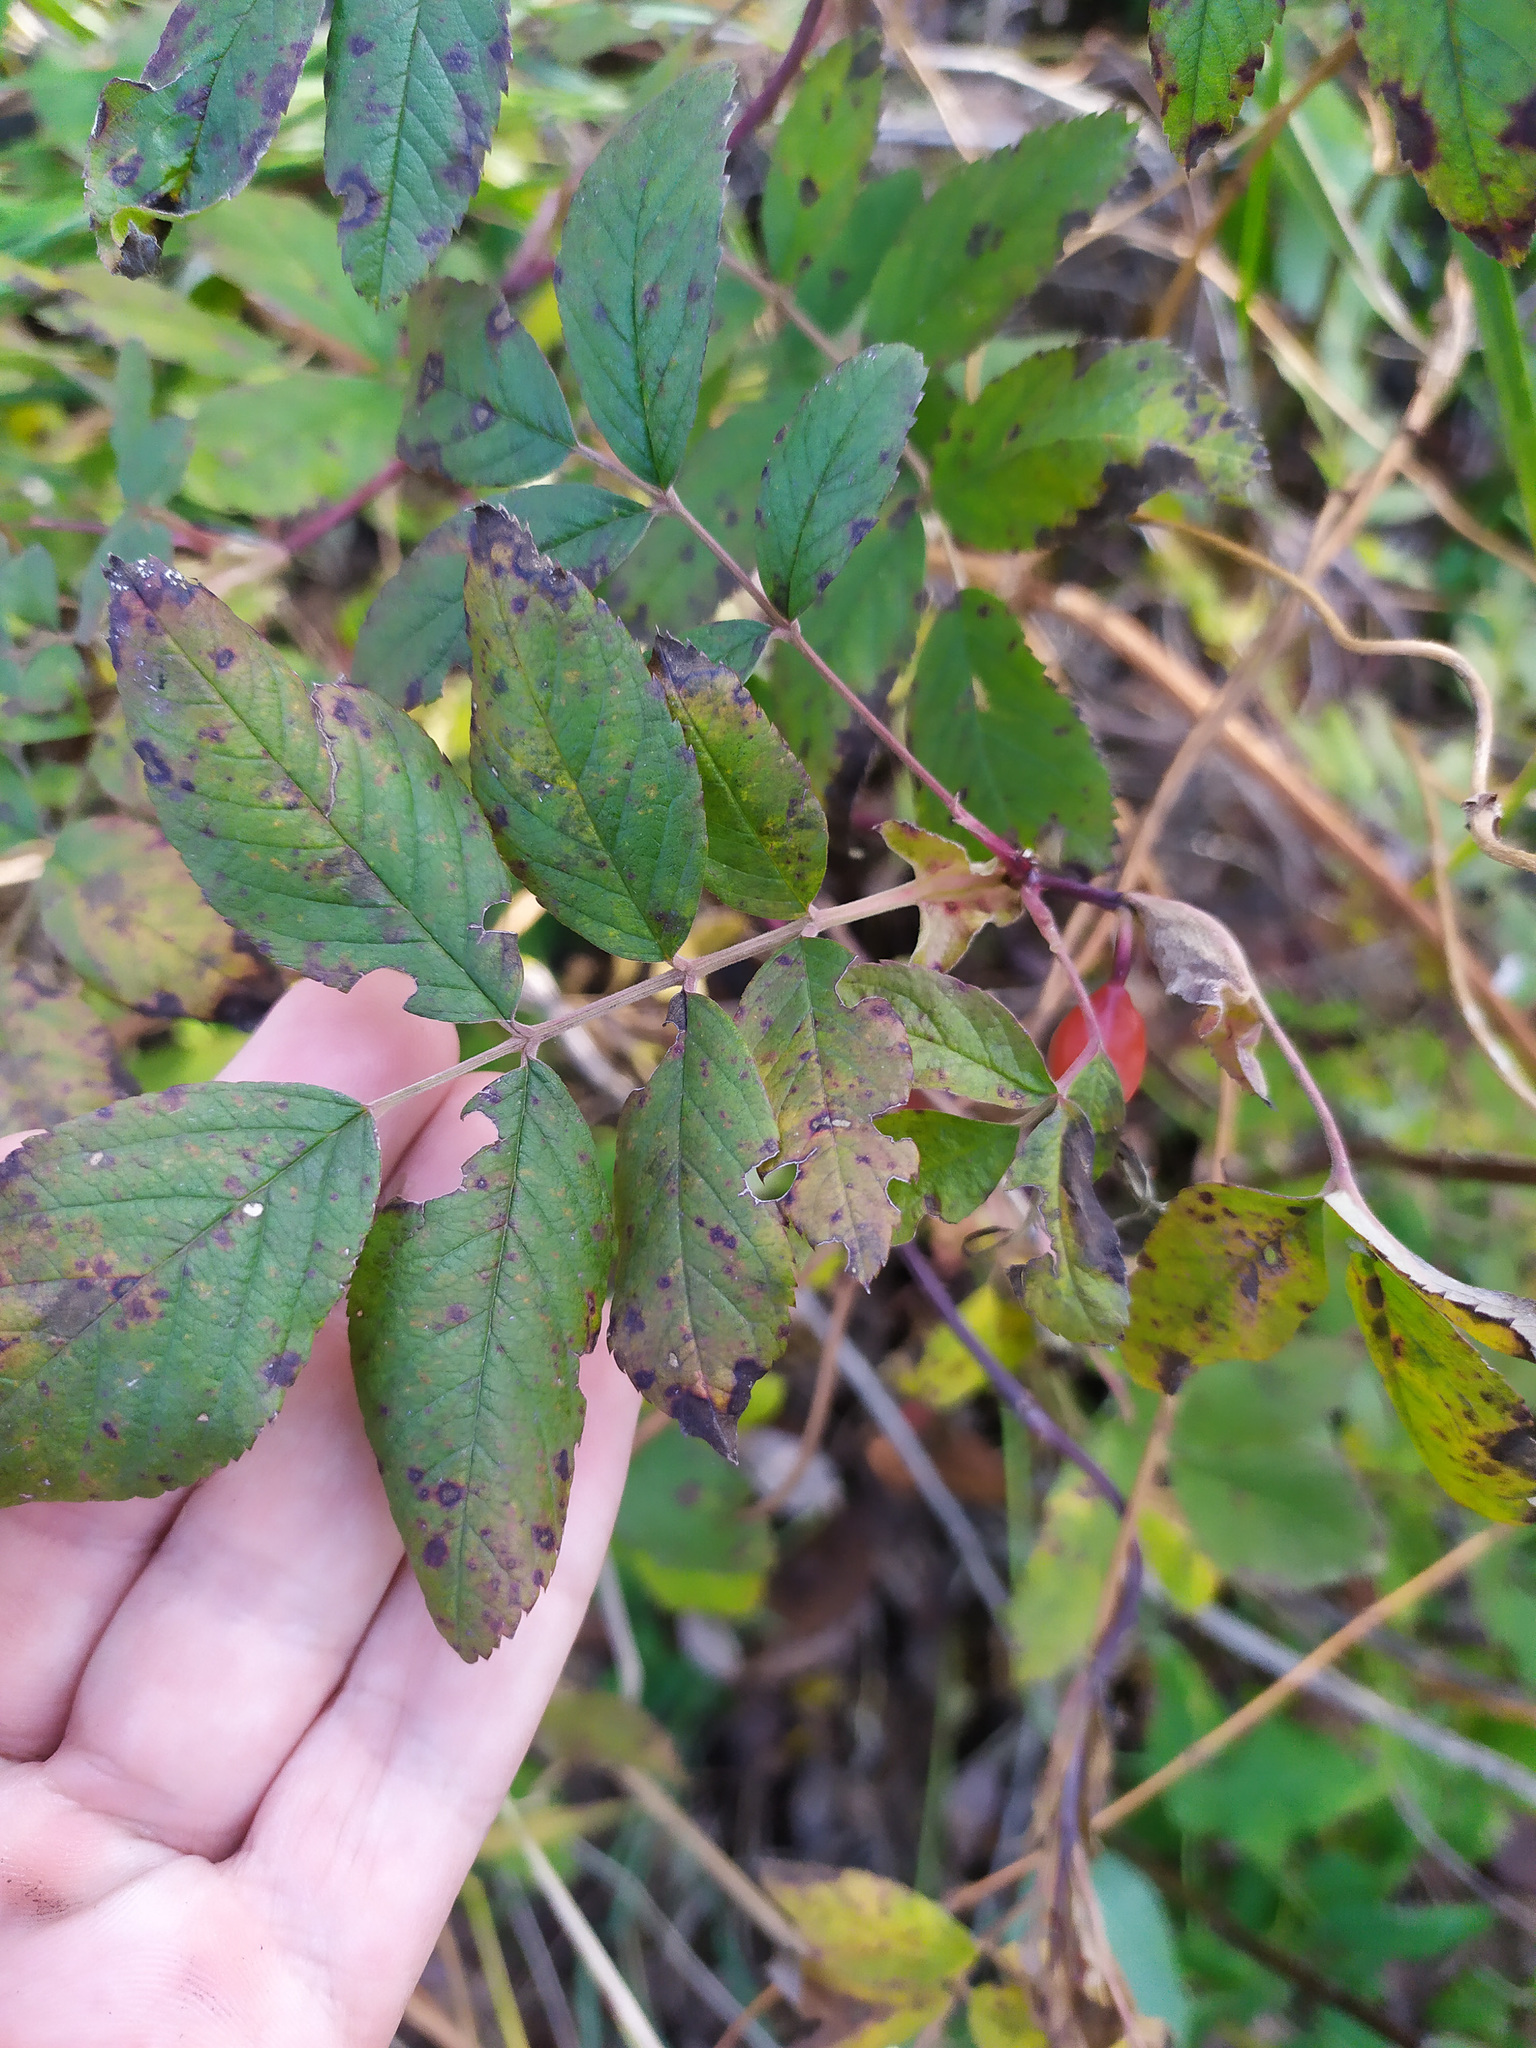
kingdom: Plantae
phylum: Tracheophyta
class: Magnoliopsida
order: Rosales
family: Rosaceae
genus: Rosa
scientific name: Rosa majalis
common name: Cinnamon rose
